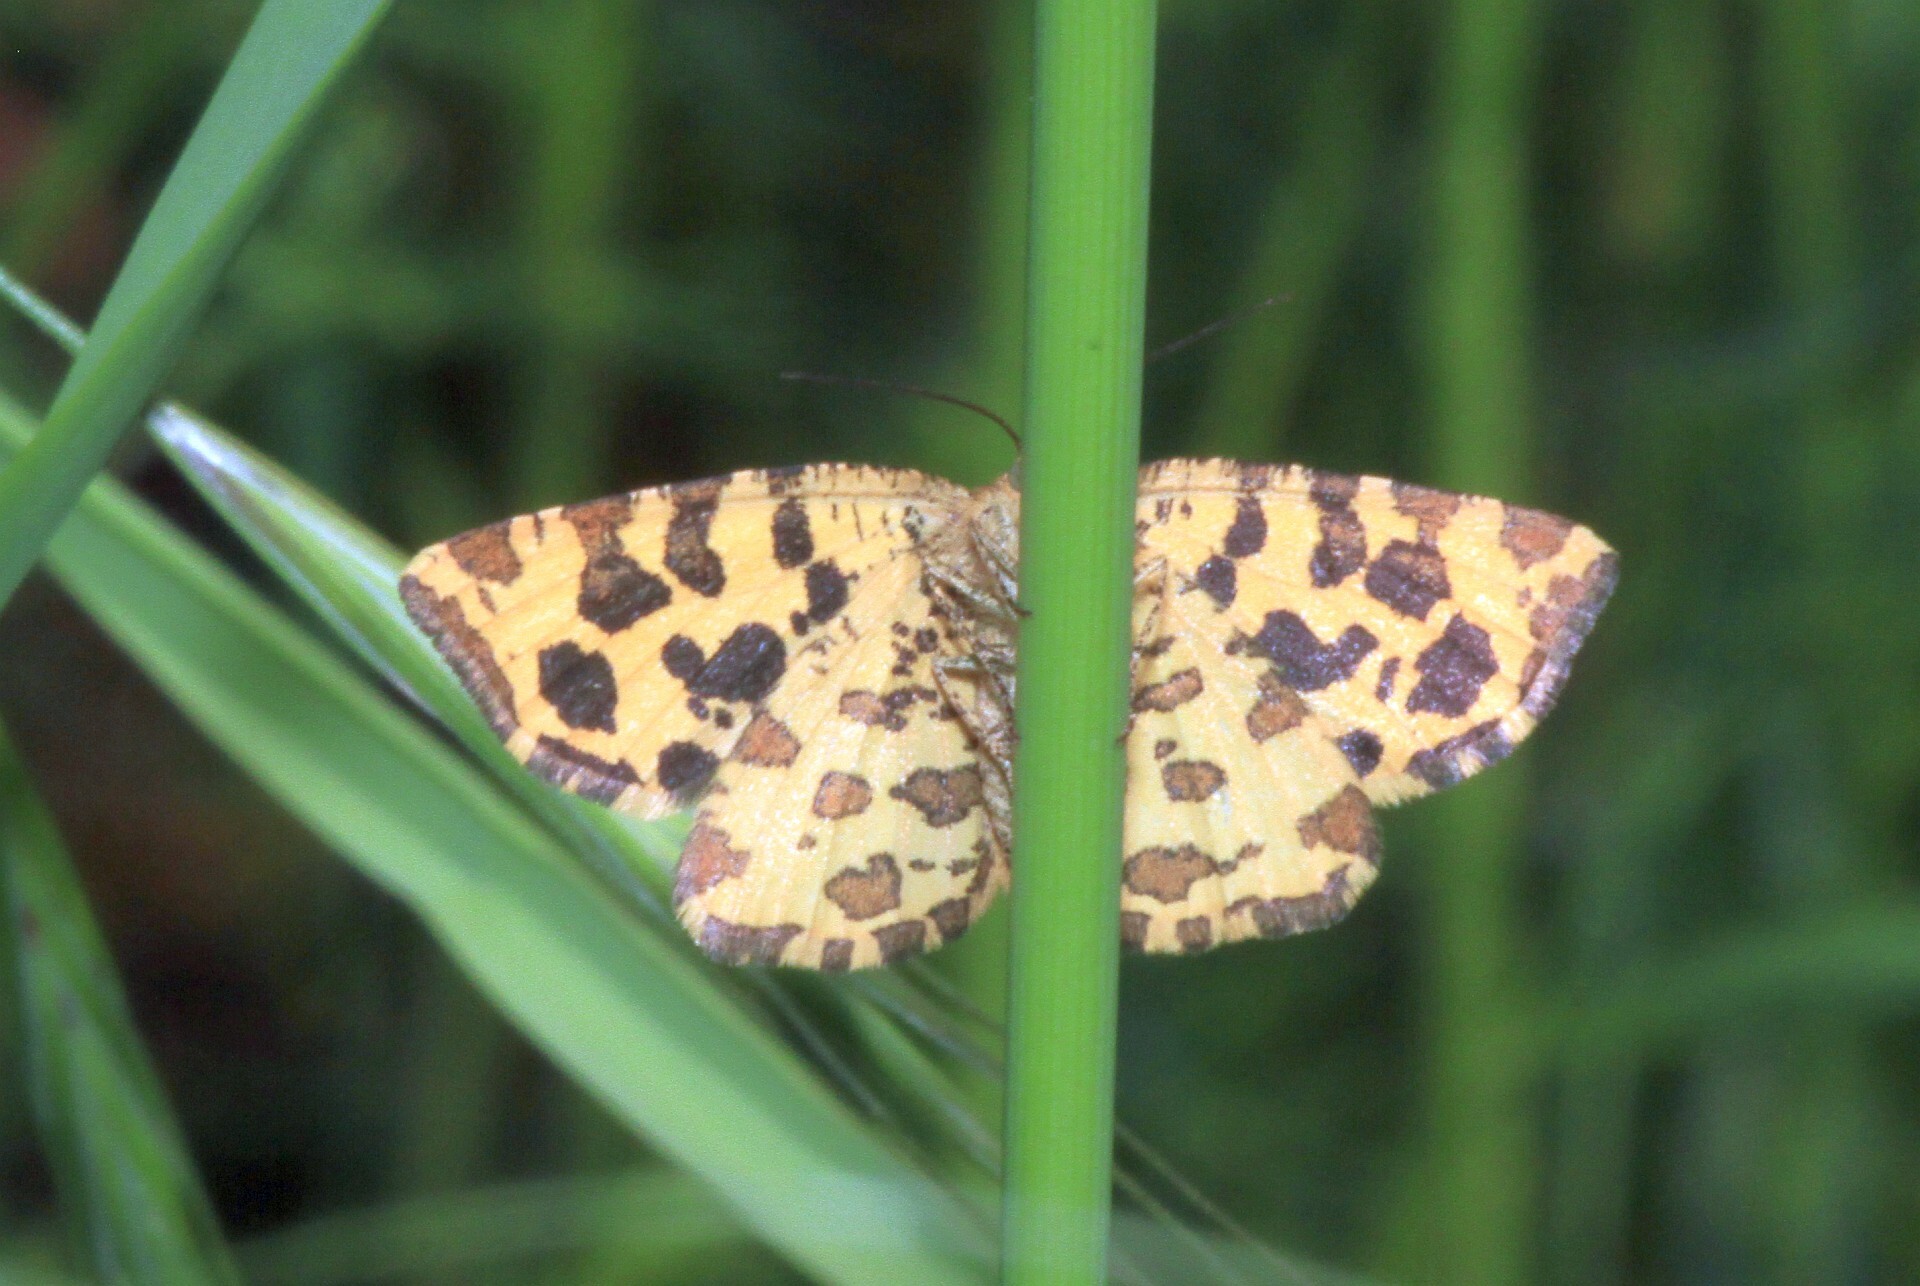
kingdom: Animalia
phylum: Arthropoda
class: Insecta
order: Lepidoptera
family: Geometridae
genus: Pseudopanthera
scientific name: Pseudopanthera macularia
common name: Speckled yellow
